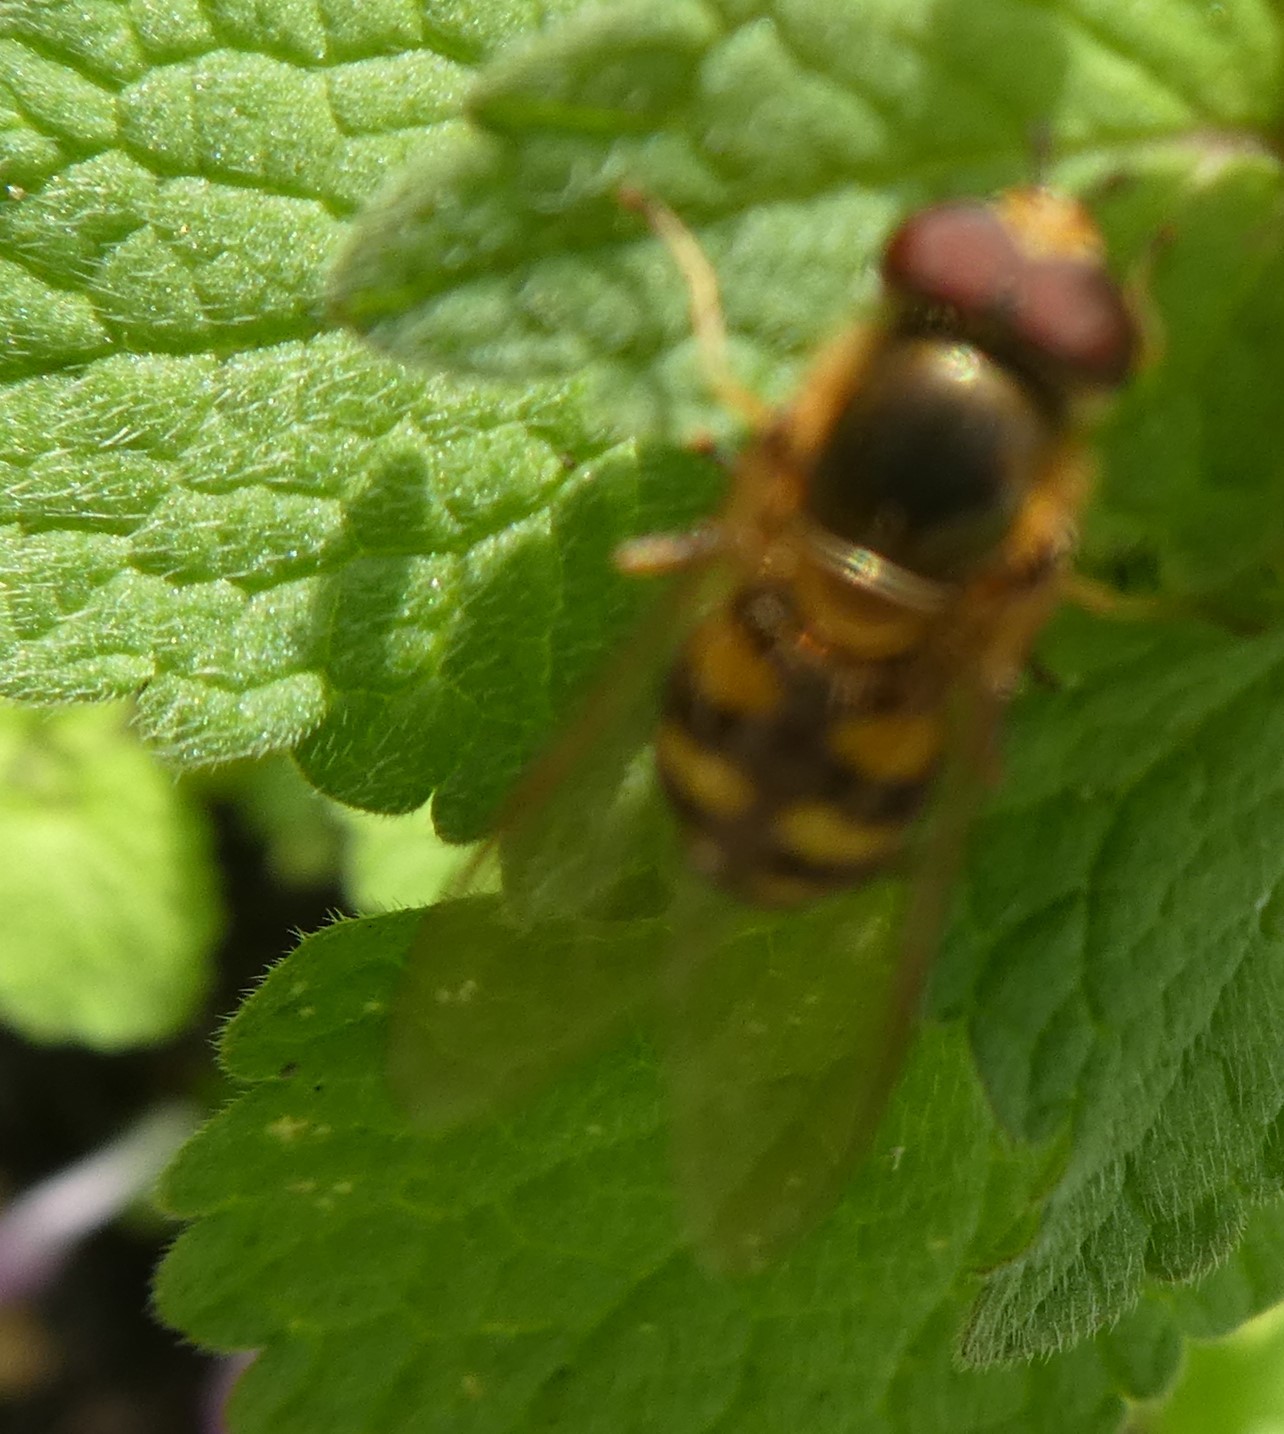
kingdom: Animalia
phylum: Arthropoda
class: Insecta
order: Diptera
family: Syrphidae
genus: Eupeodes
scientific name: Eupeodes
